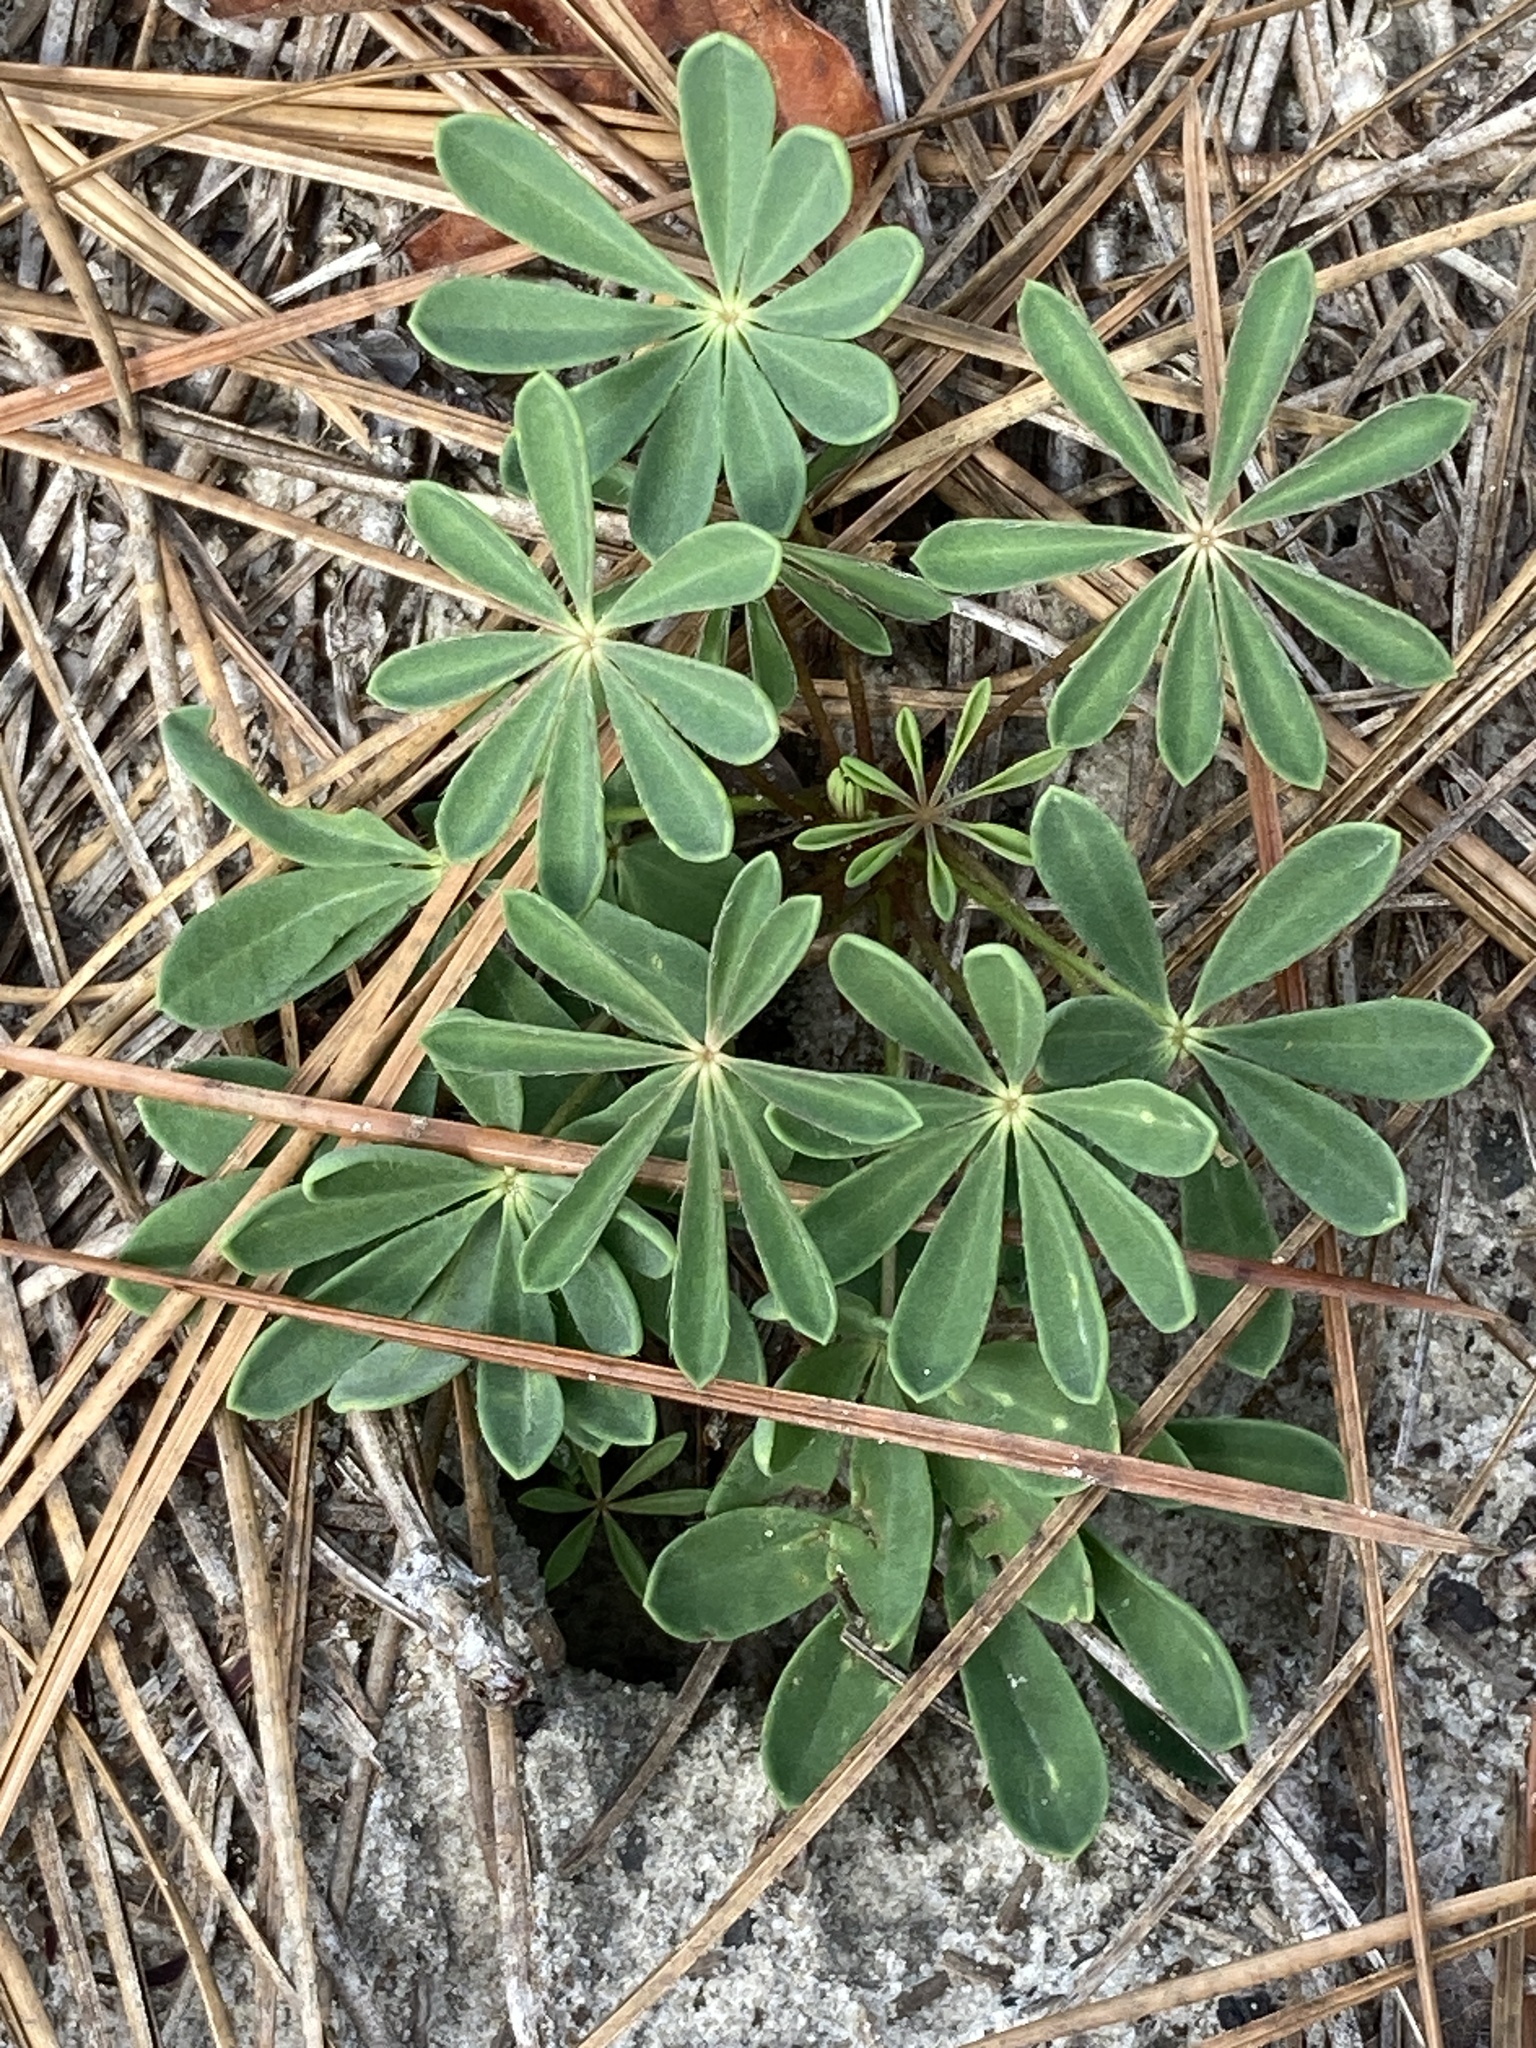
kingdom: Plantae
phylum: Tracheophyta
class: Magnoliopsida
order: Fabales
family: Fabaceae
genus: Lupinus
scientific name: Lupinus perennis
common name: Sundial lupine
